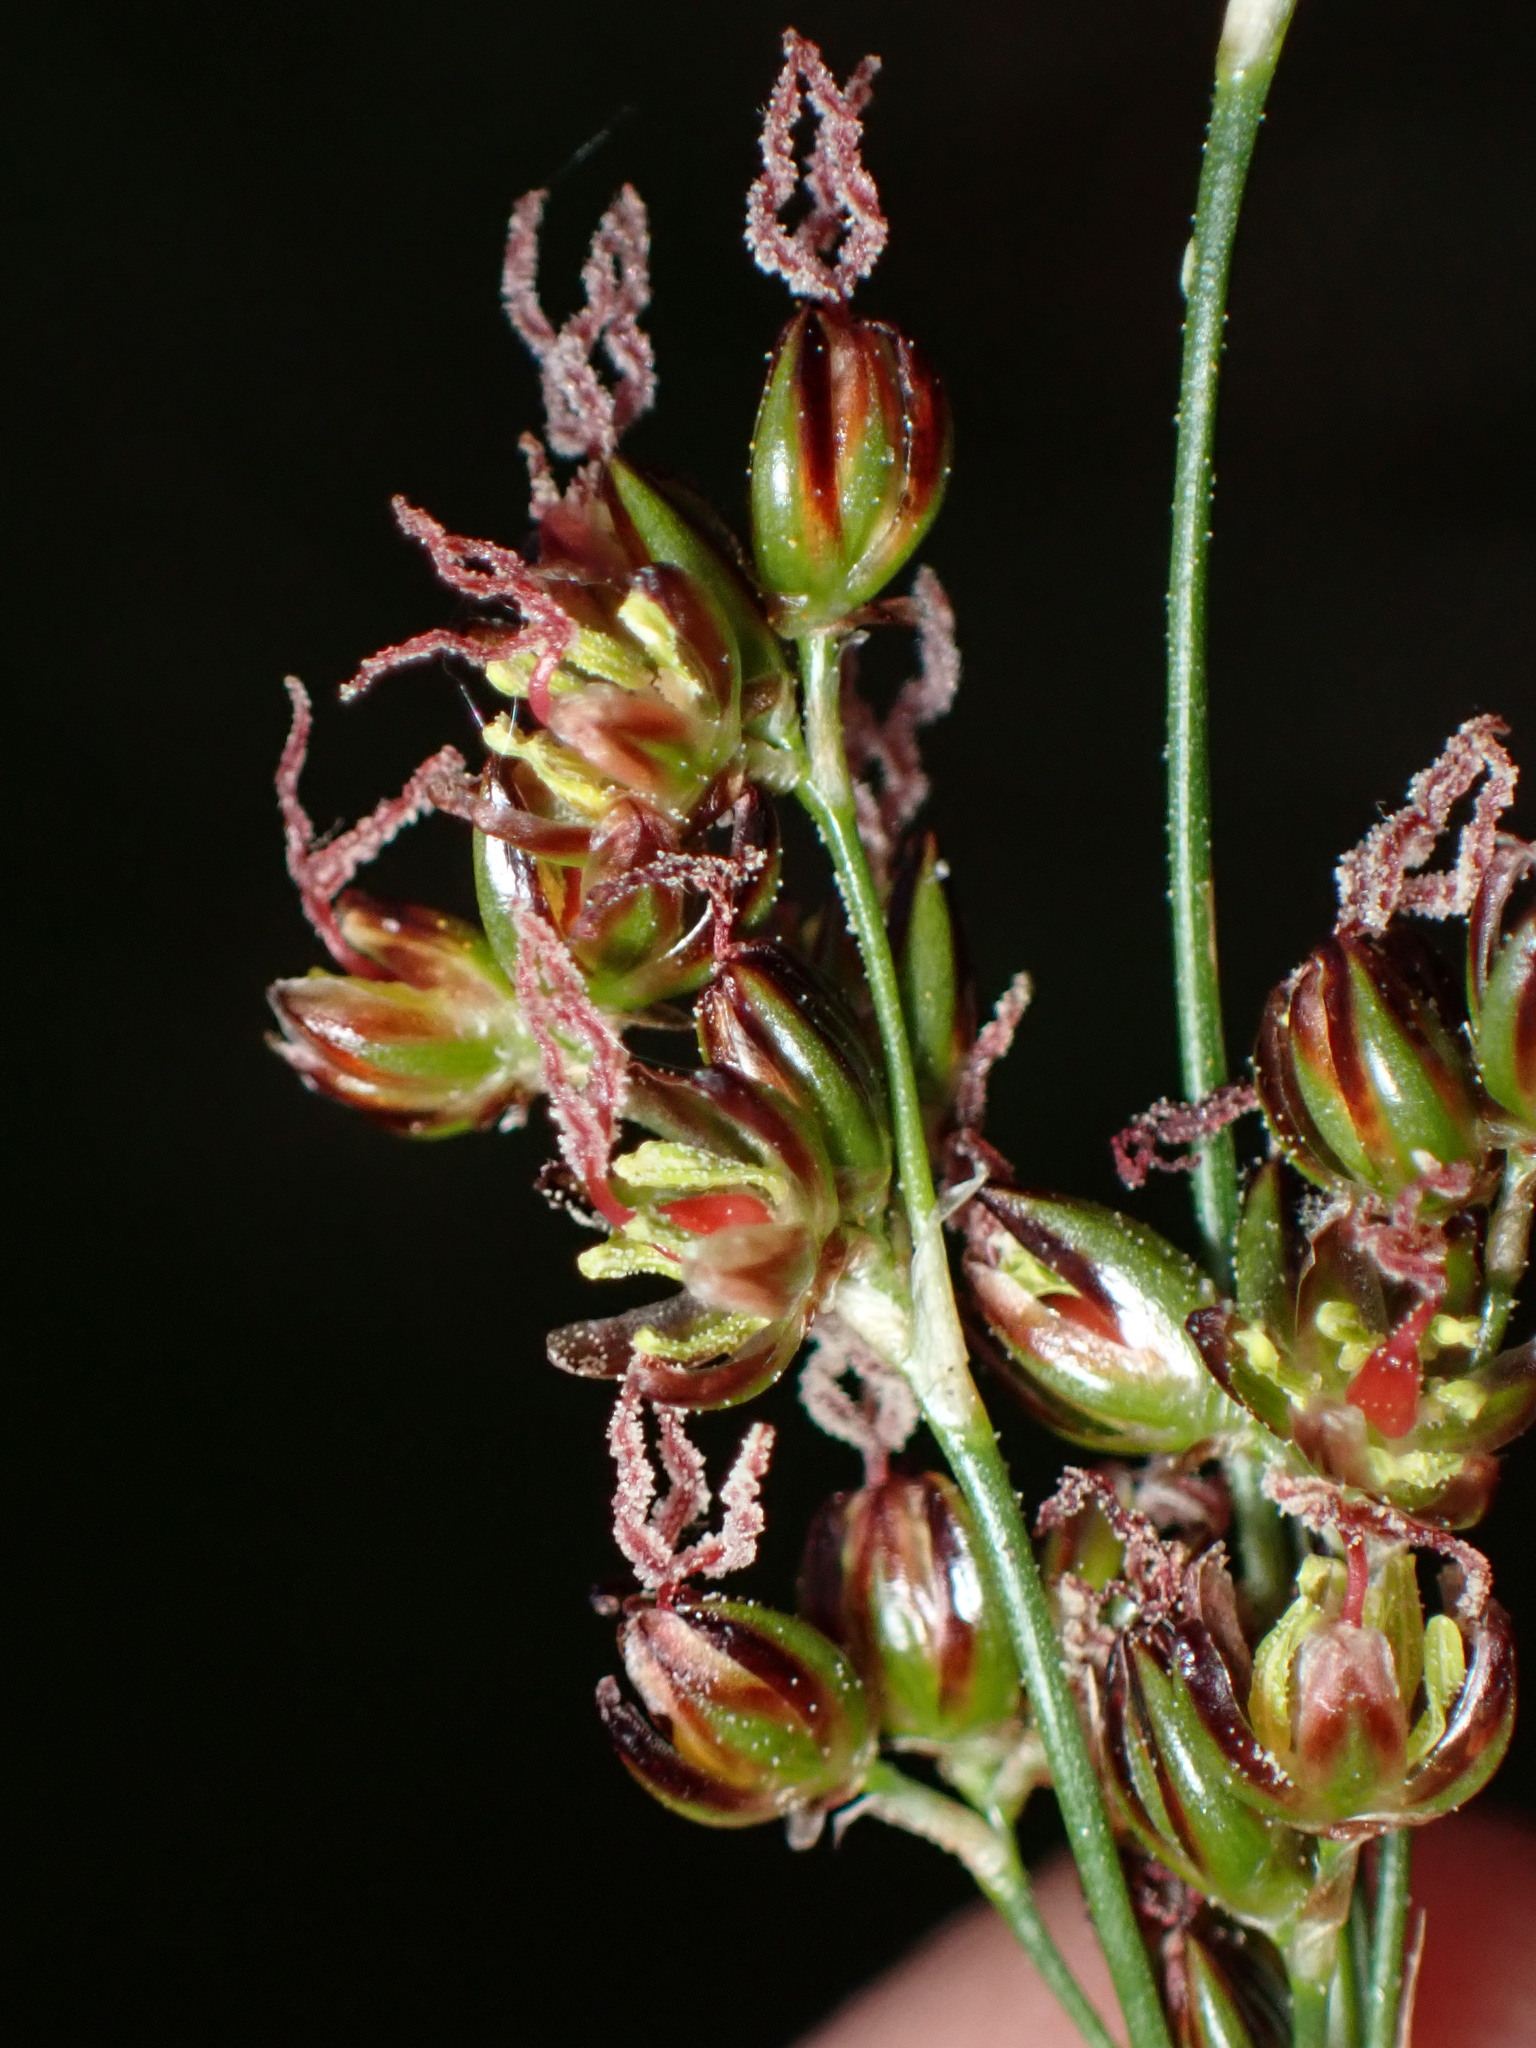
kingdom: Plantae
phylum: Tracheophyta
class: Liliopsida
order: Poales
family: Juncaceae
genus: Juncus
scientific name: Juncus gerardi
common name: Saltmarsh rush
